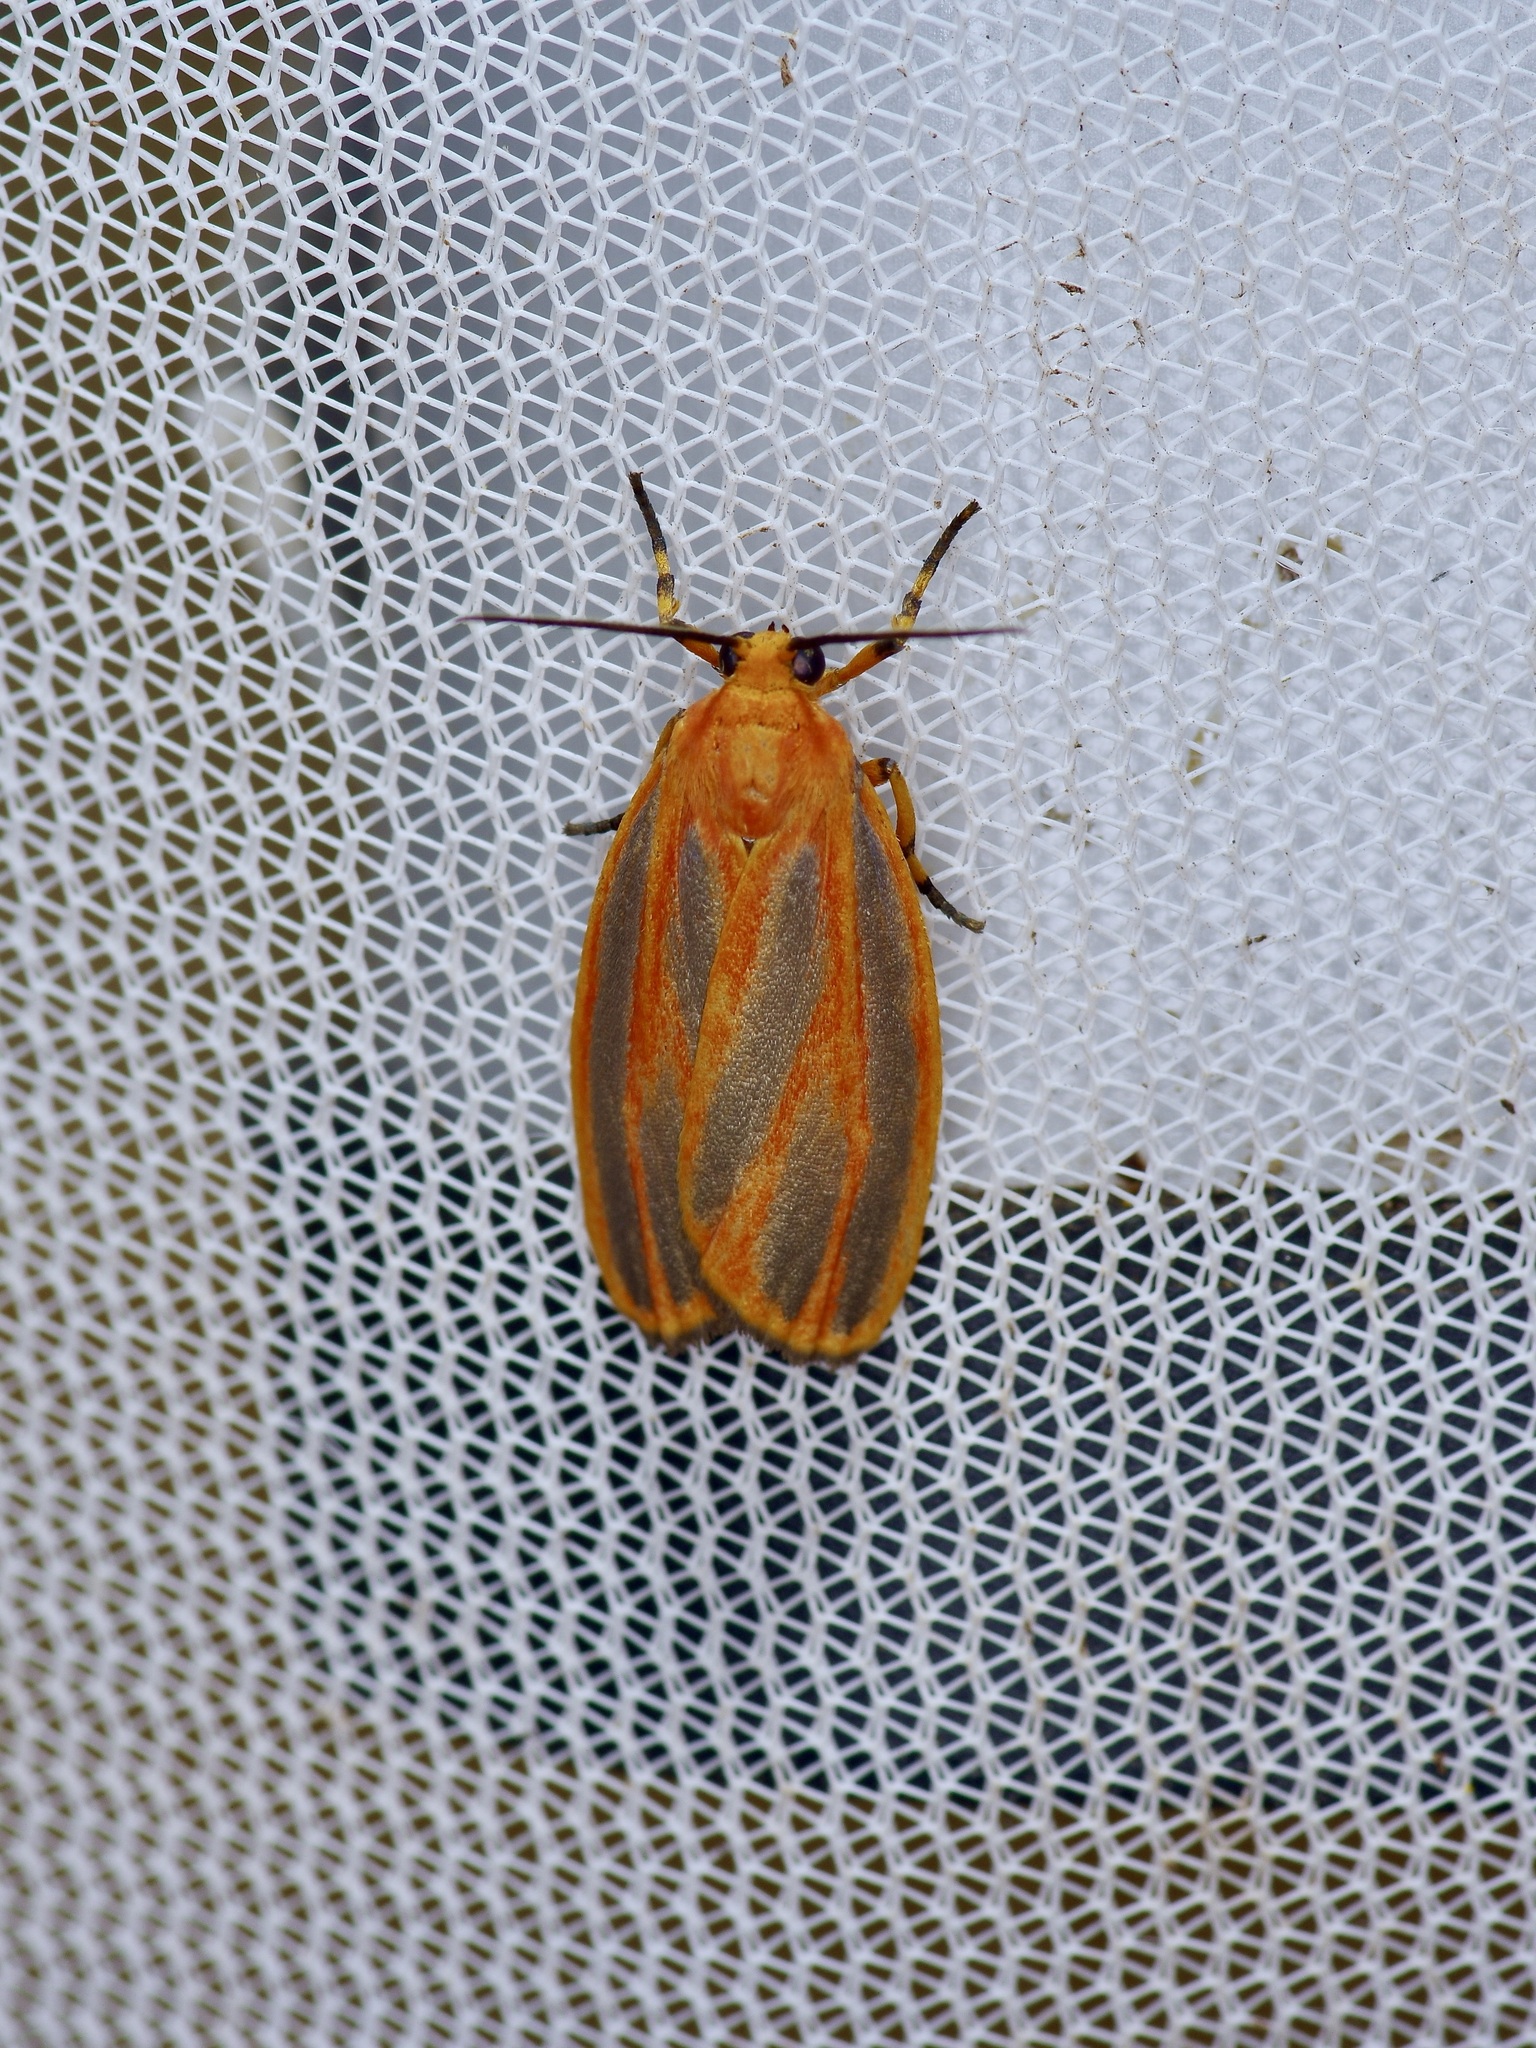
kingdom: Animalia
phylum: Arthropoda
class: Insecta
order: Lepidoptera
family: Erebidae
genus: Hypoprepia
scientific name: Hypoprepia miniata
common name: Scarlet-winged lichen moth
